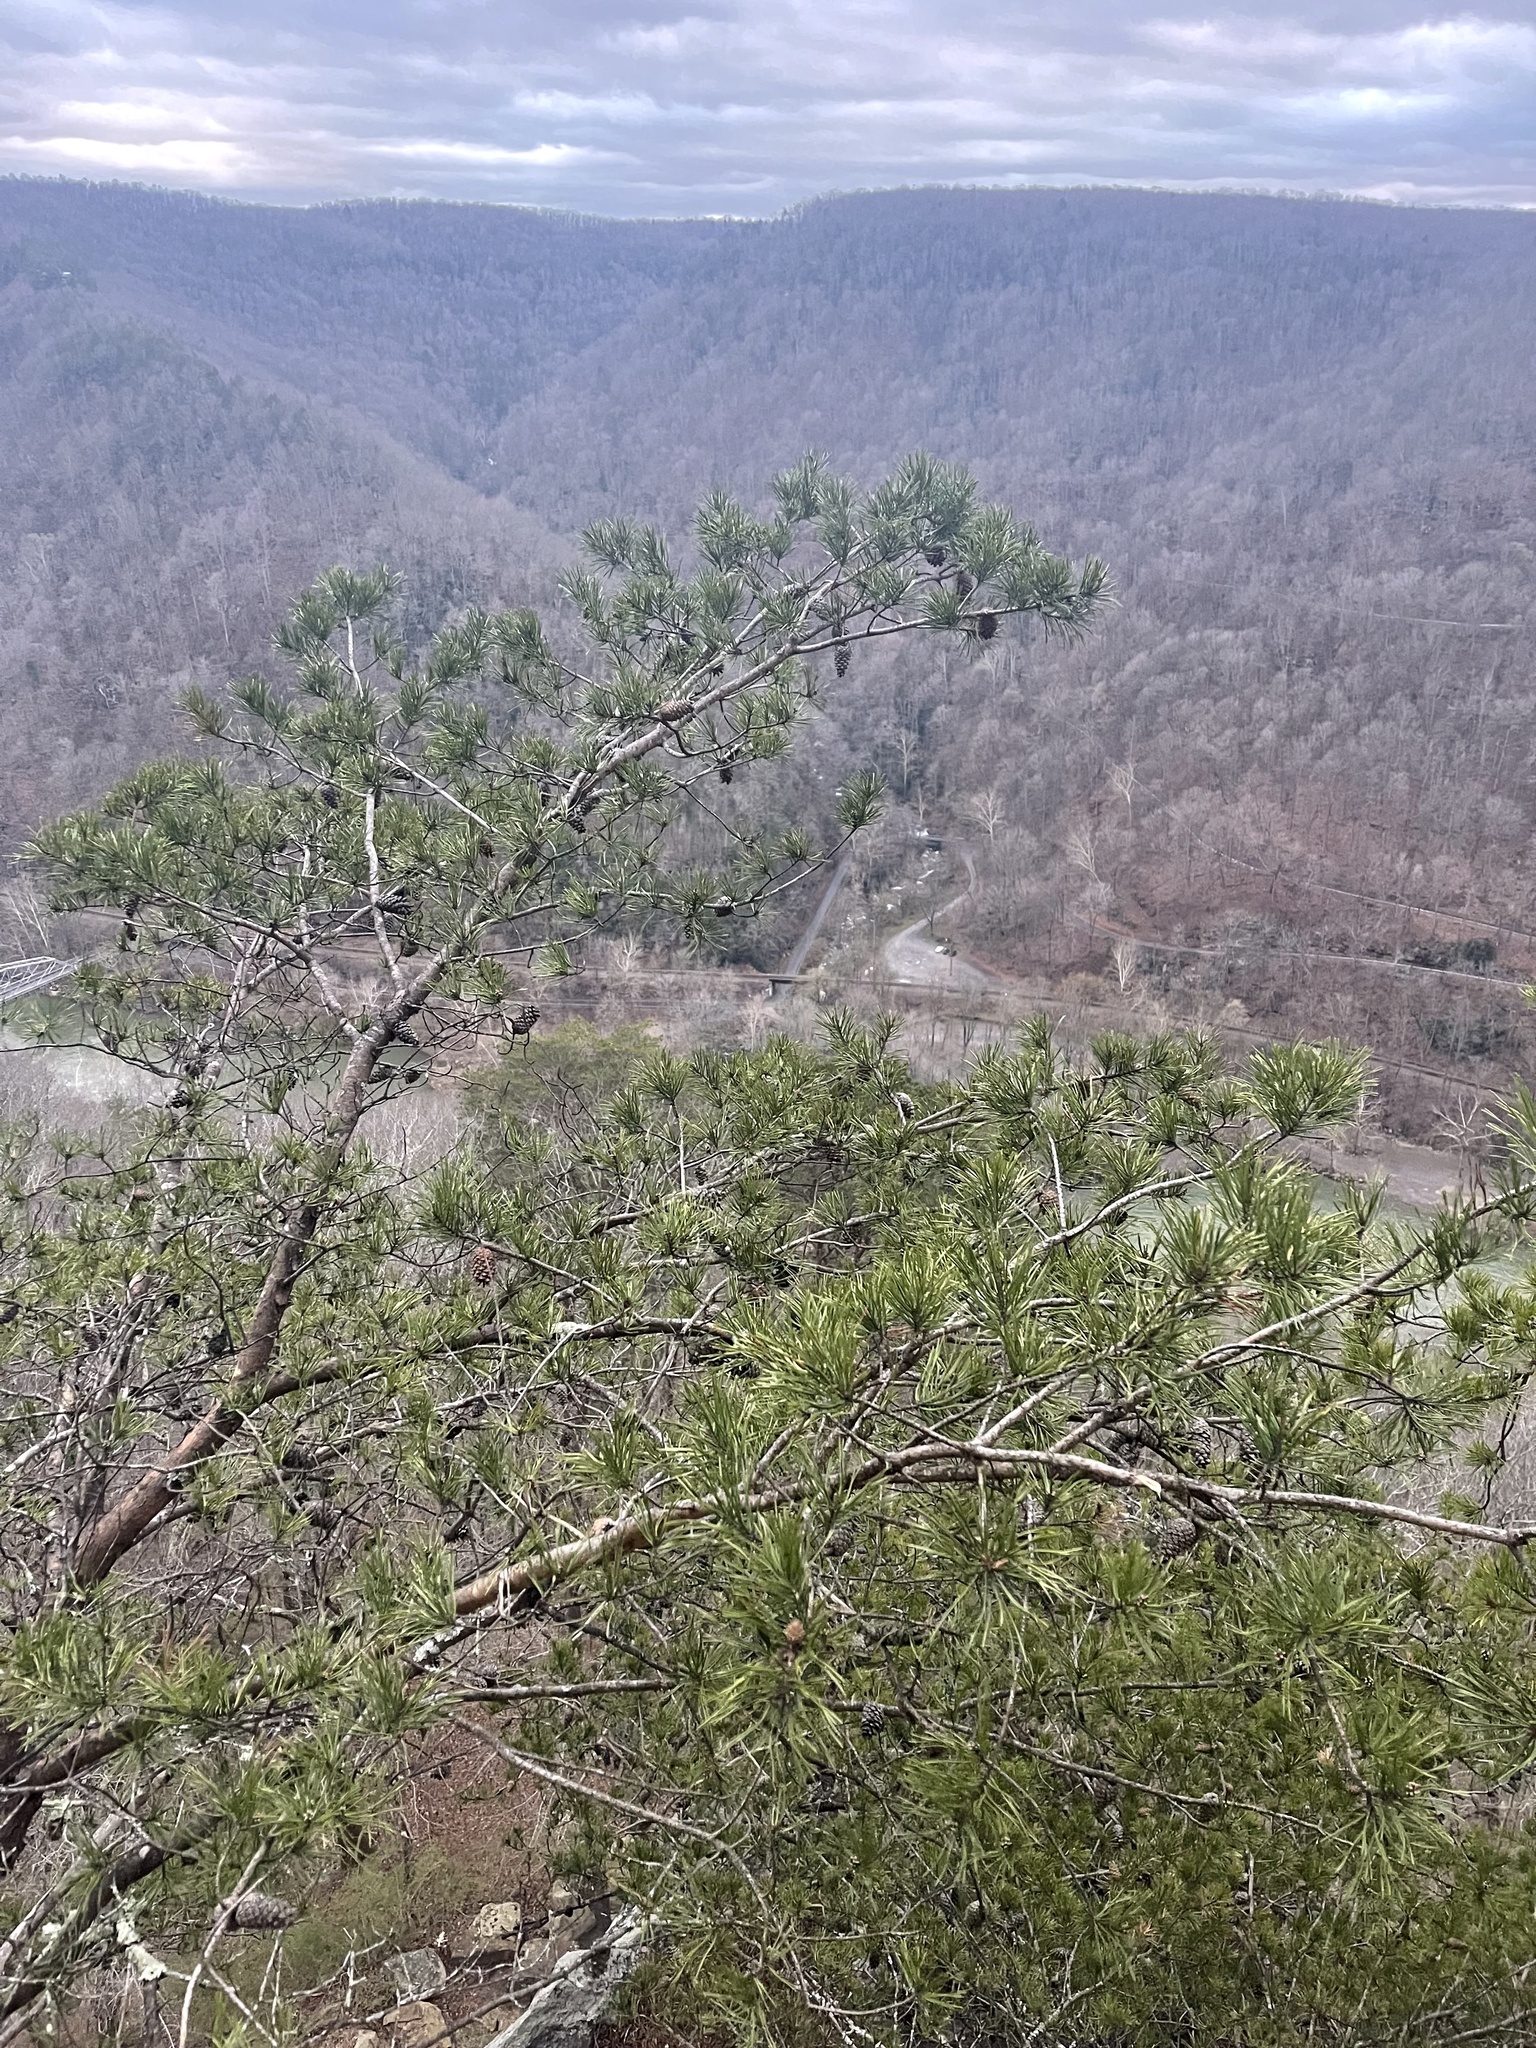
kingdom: Plantae
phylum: Tracheophyta
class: Pinopsida
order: Pinales
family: Pinaceae
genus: Pinus
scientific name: Pinus virginiana
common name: Scrub pine
